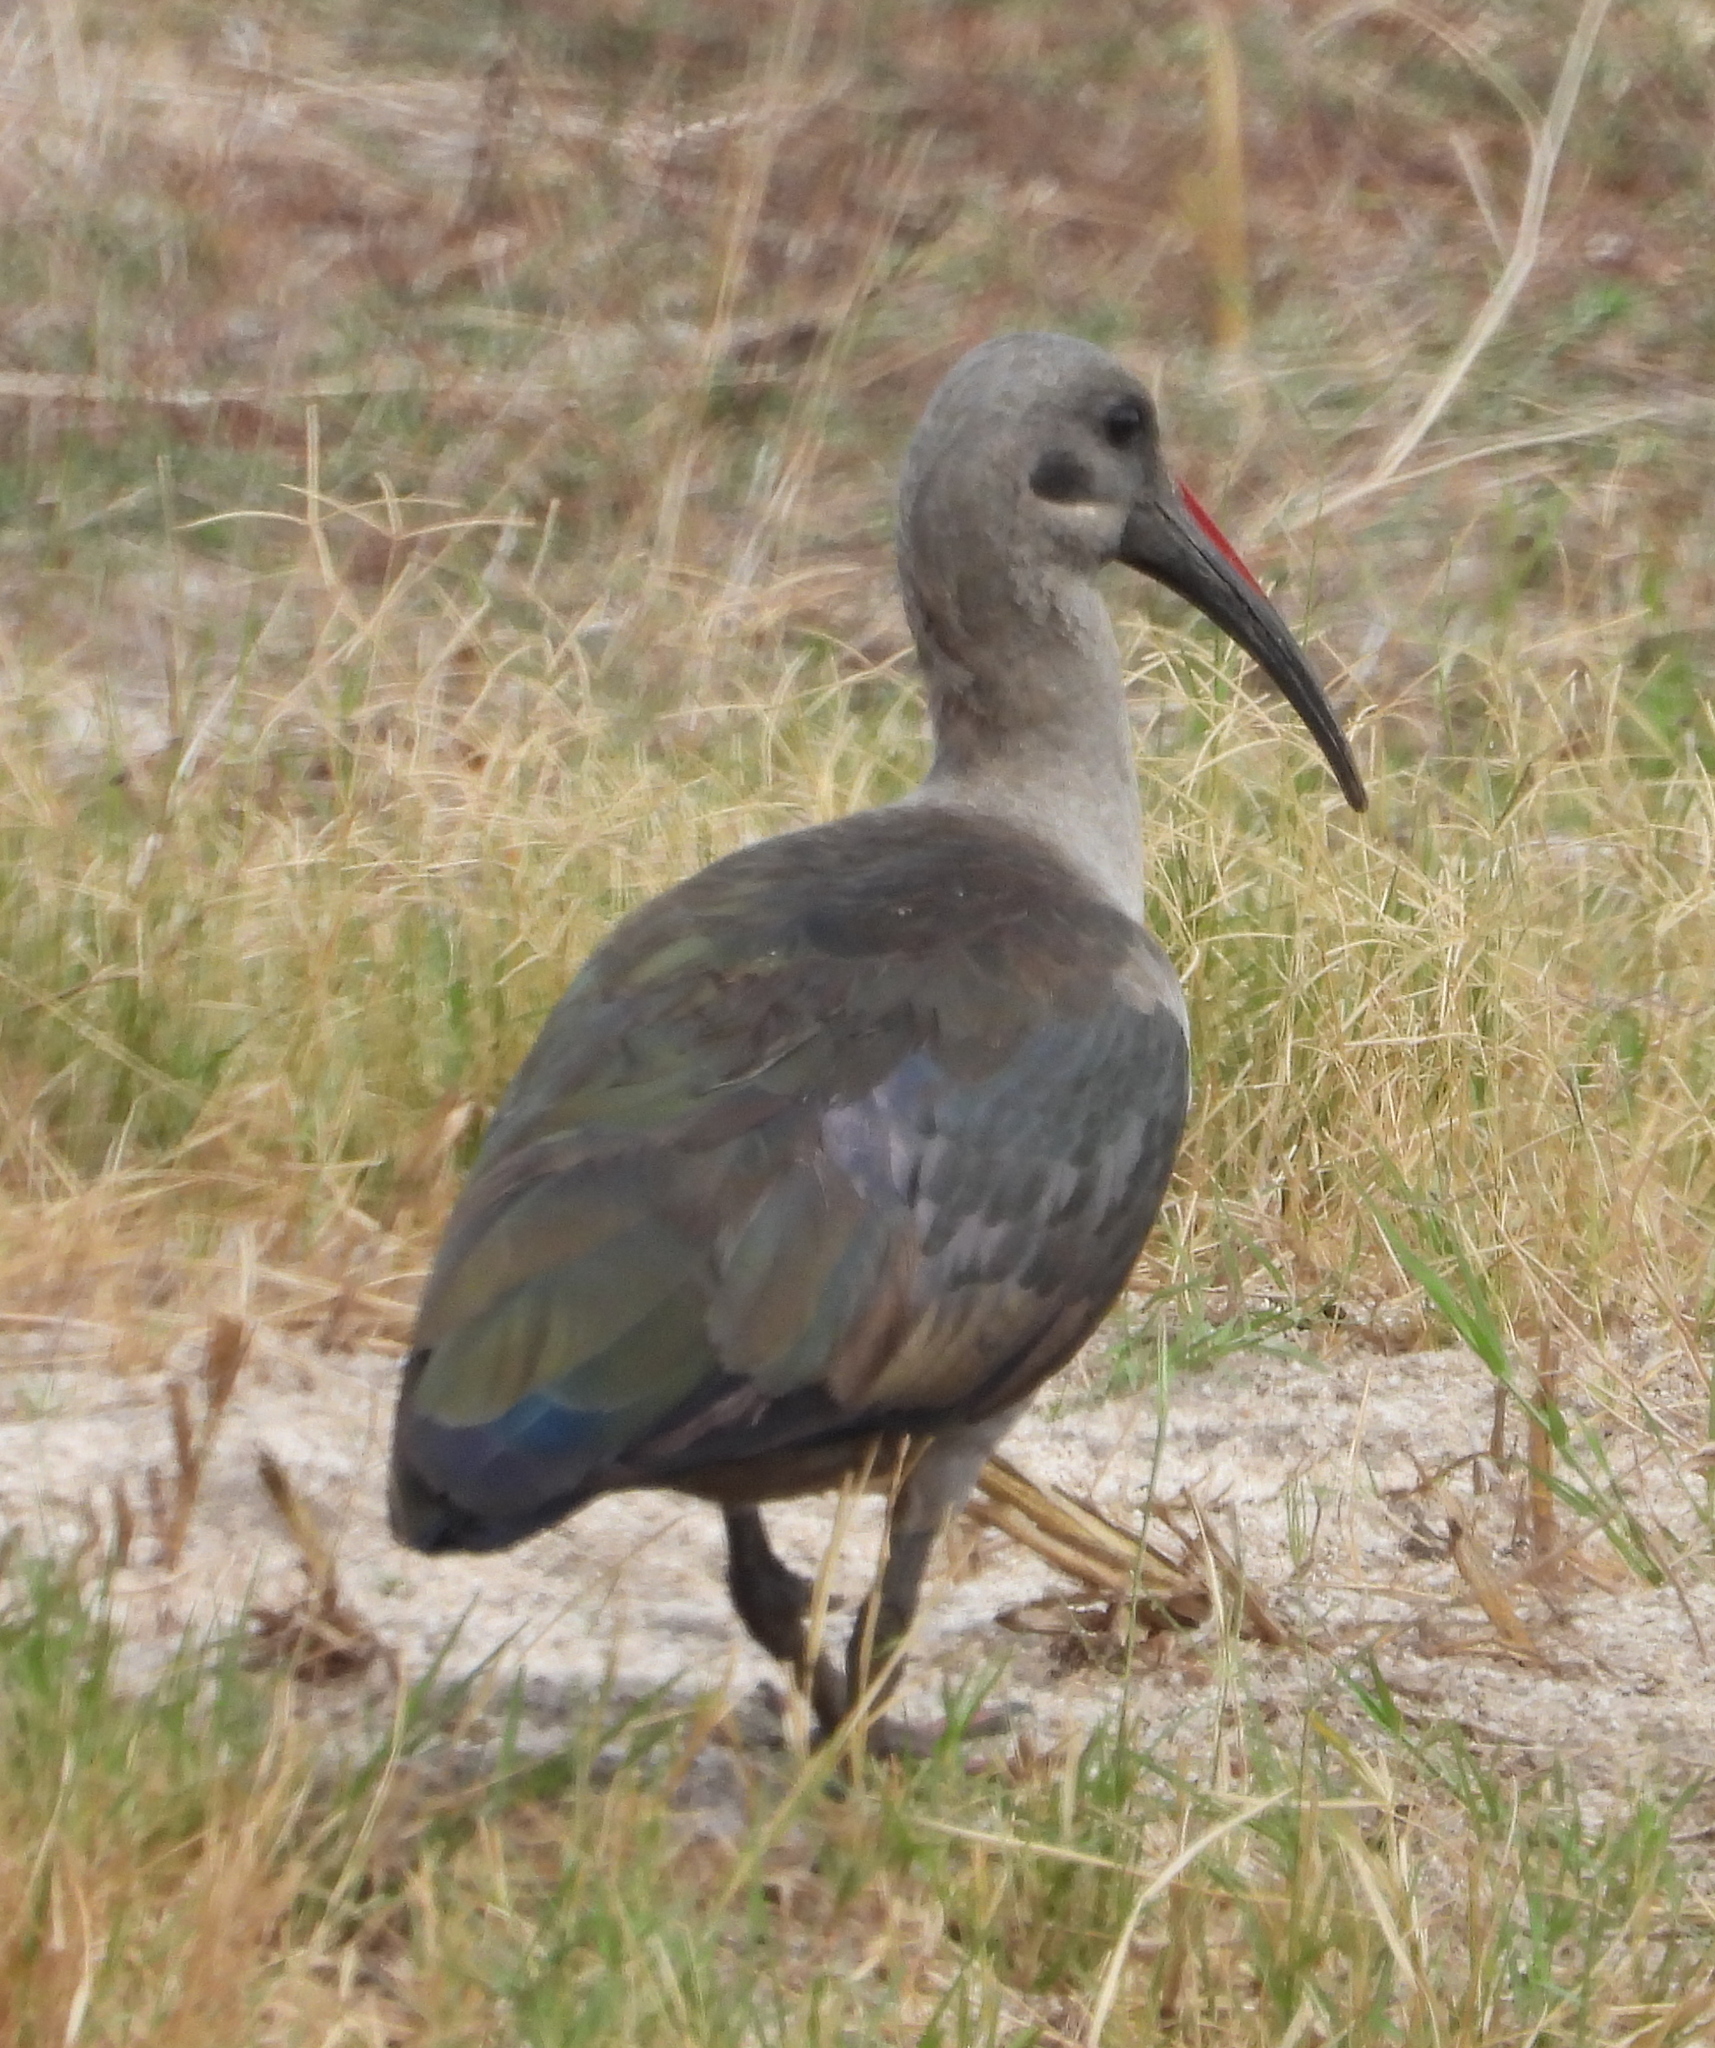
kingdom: Animalia
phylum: Chordata
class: Aves
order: Pelecaniformes
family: Threskiornithidae
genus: Bostrychia
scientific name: Bostrychia hagedash
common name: Hadada ibis
